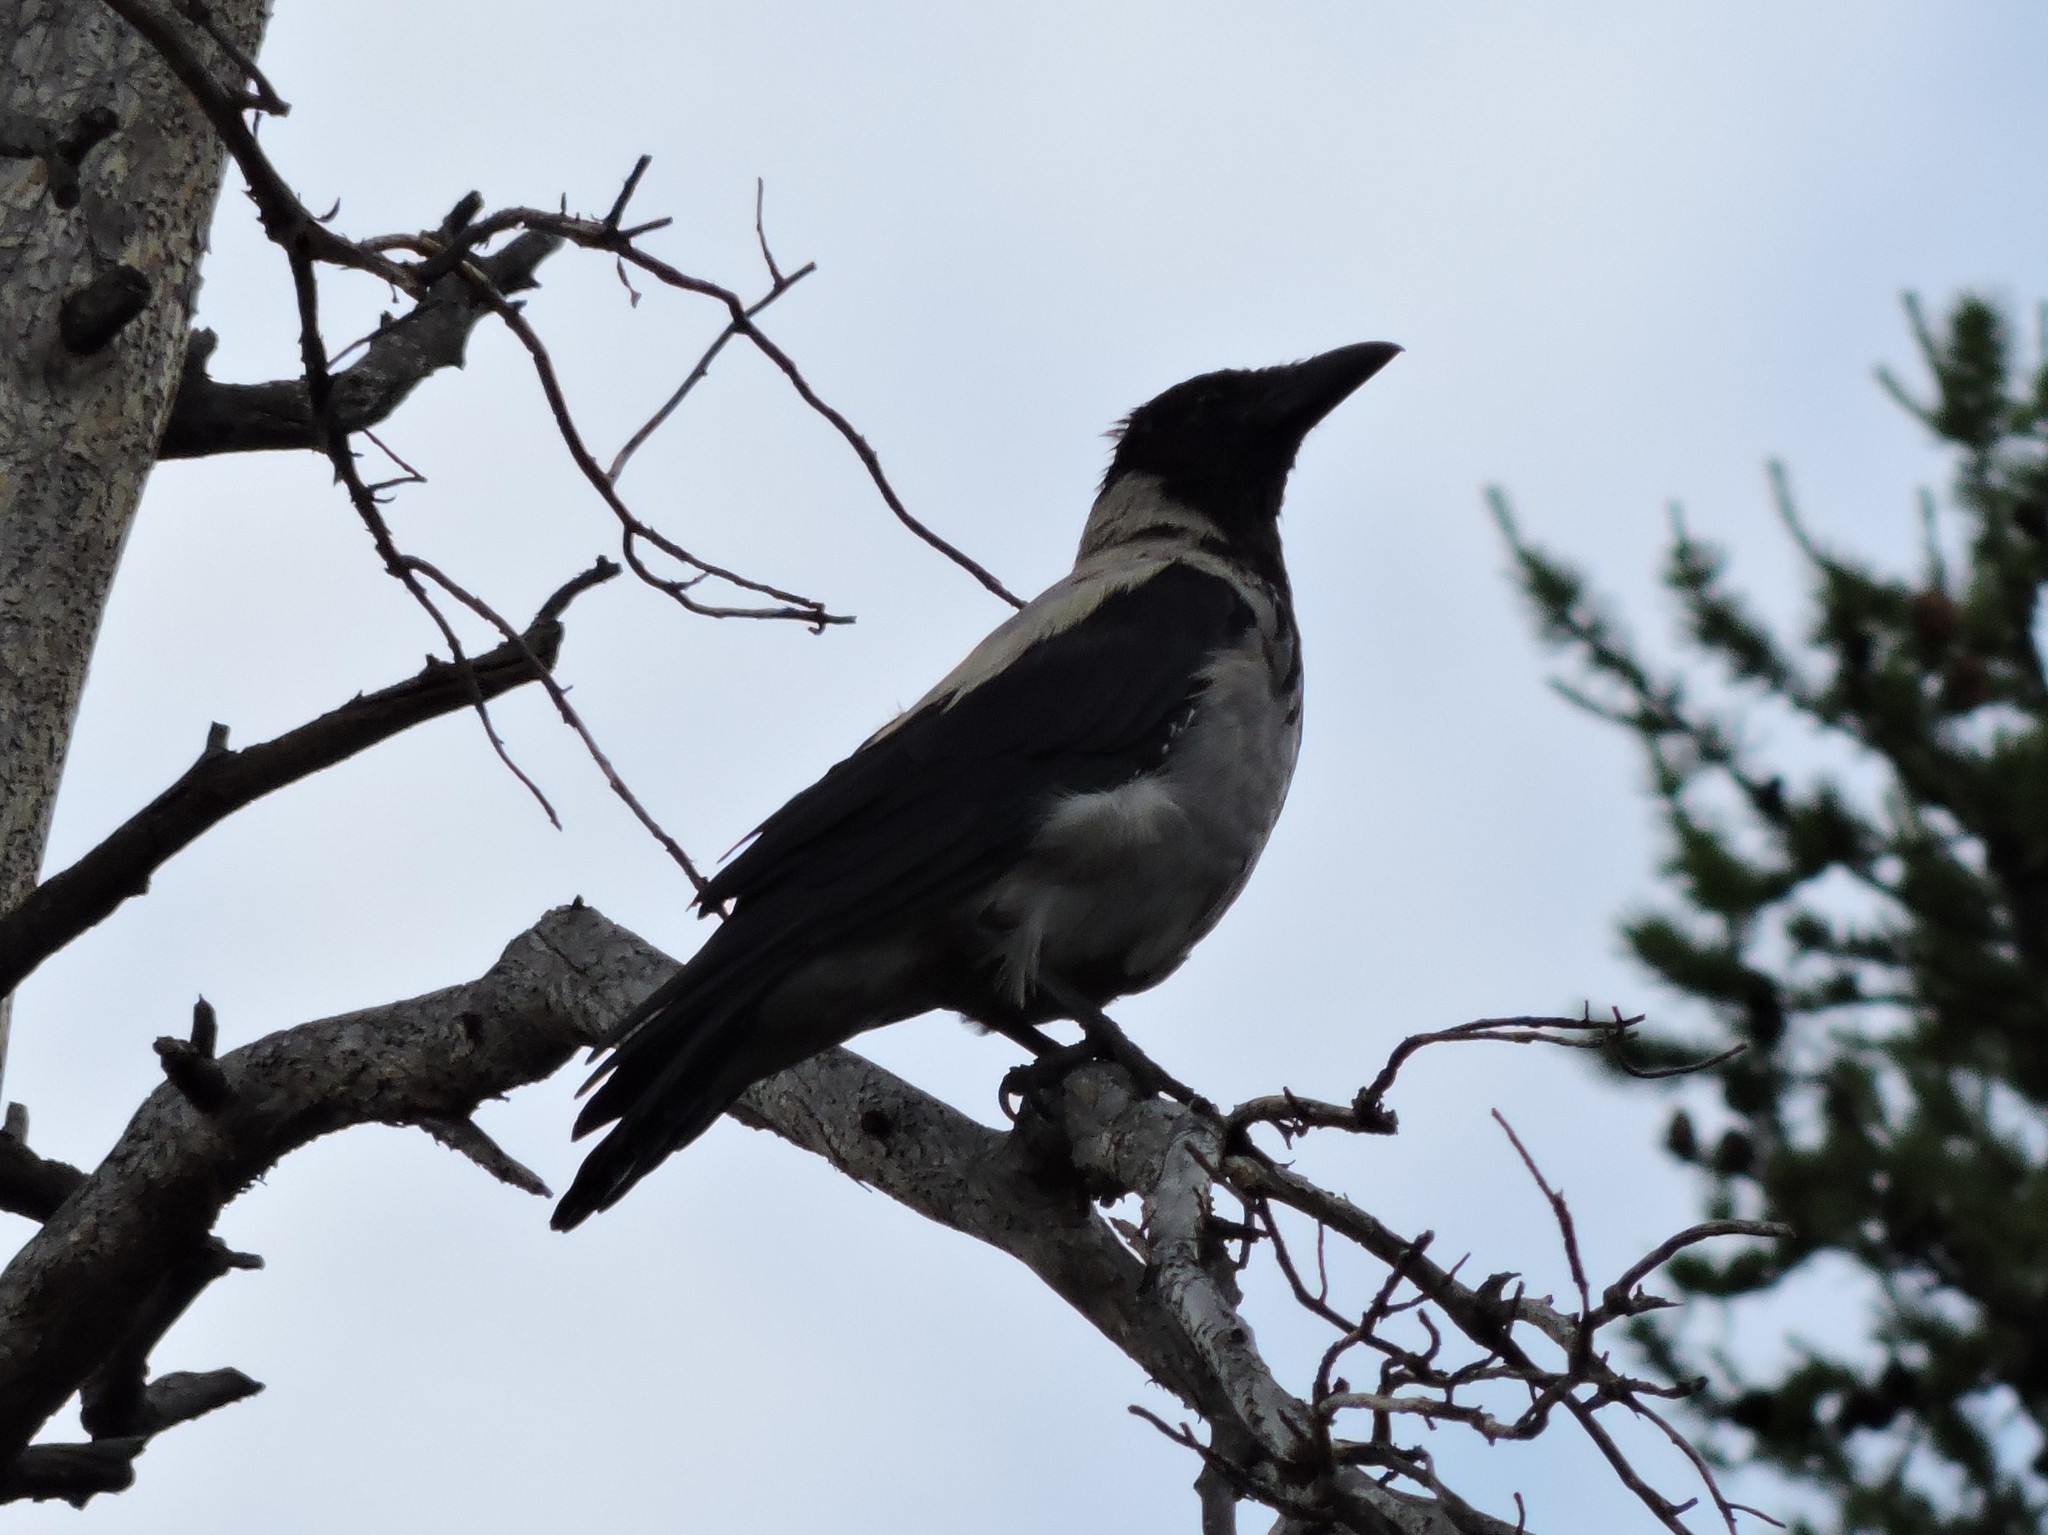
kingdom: Animalia
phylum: Chordata
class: Aves
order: Passeriformes
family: Corvidae
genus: Corvus
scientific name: Corvus cornix
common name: Hooded crow
